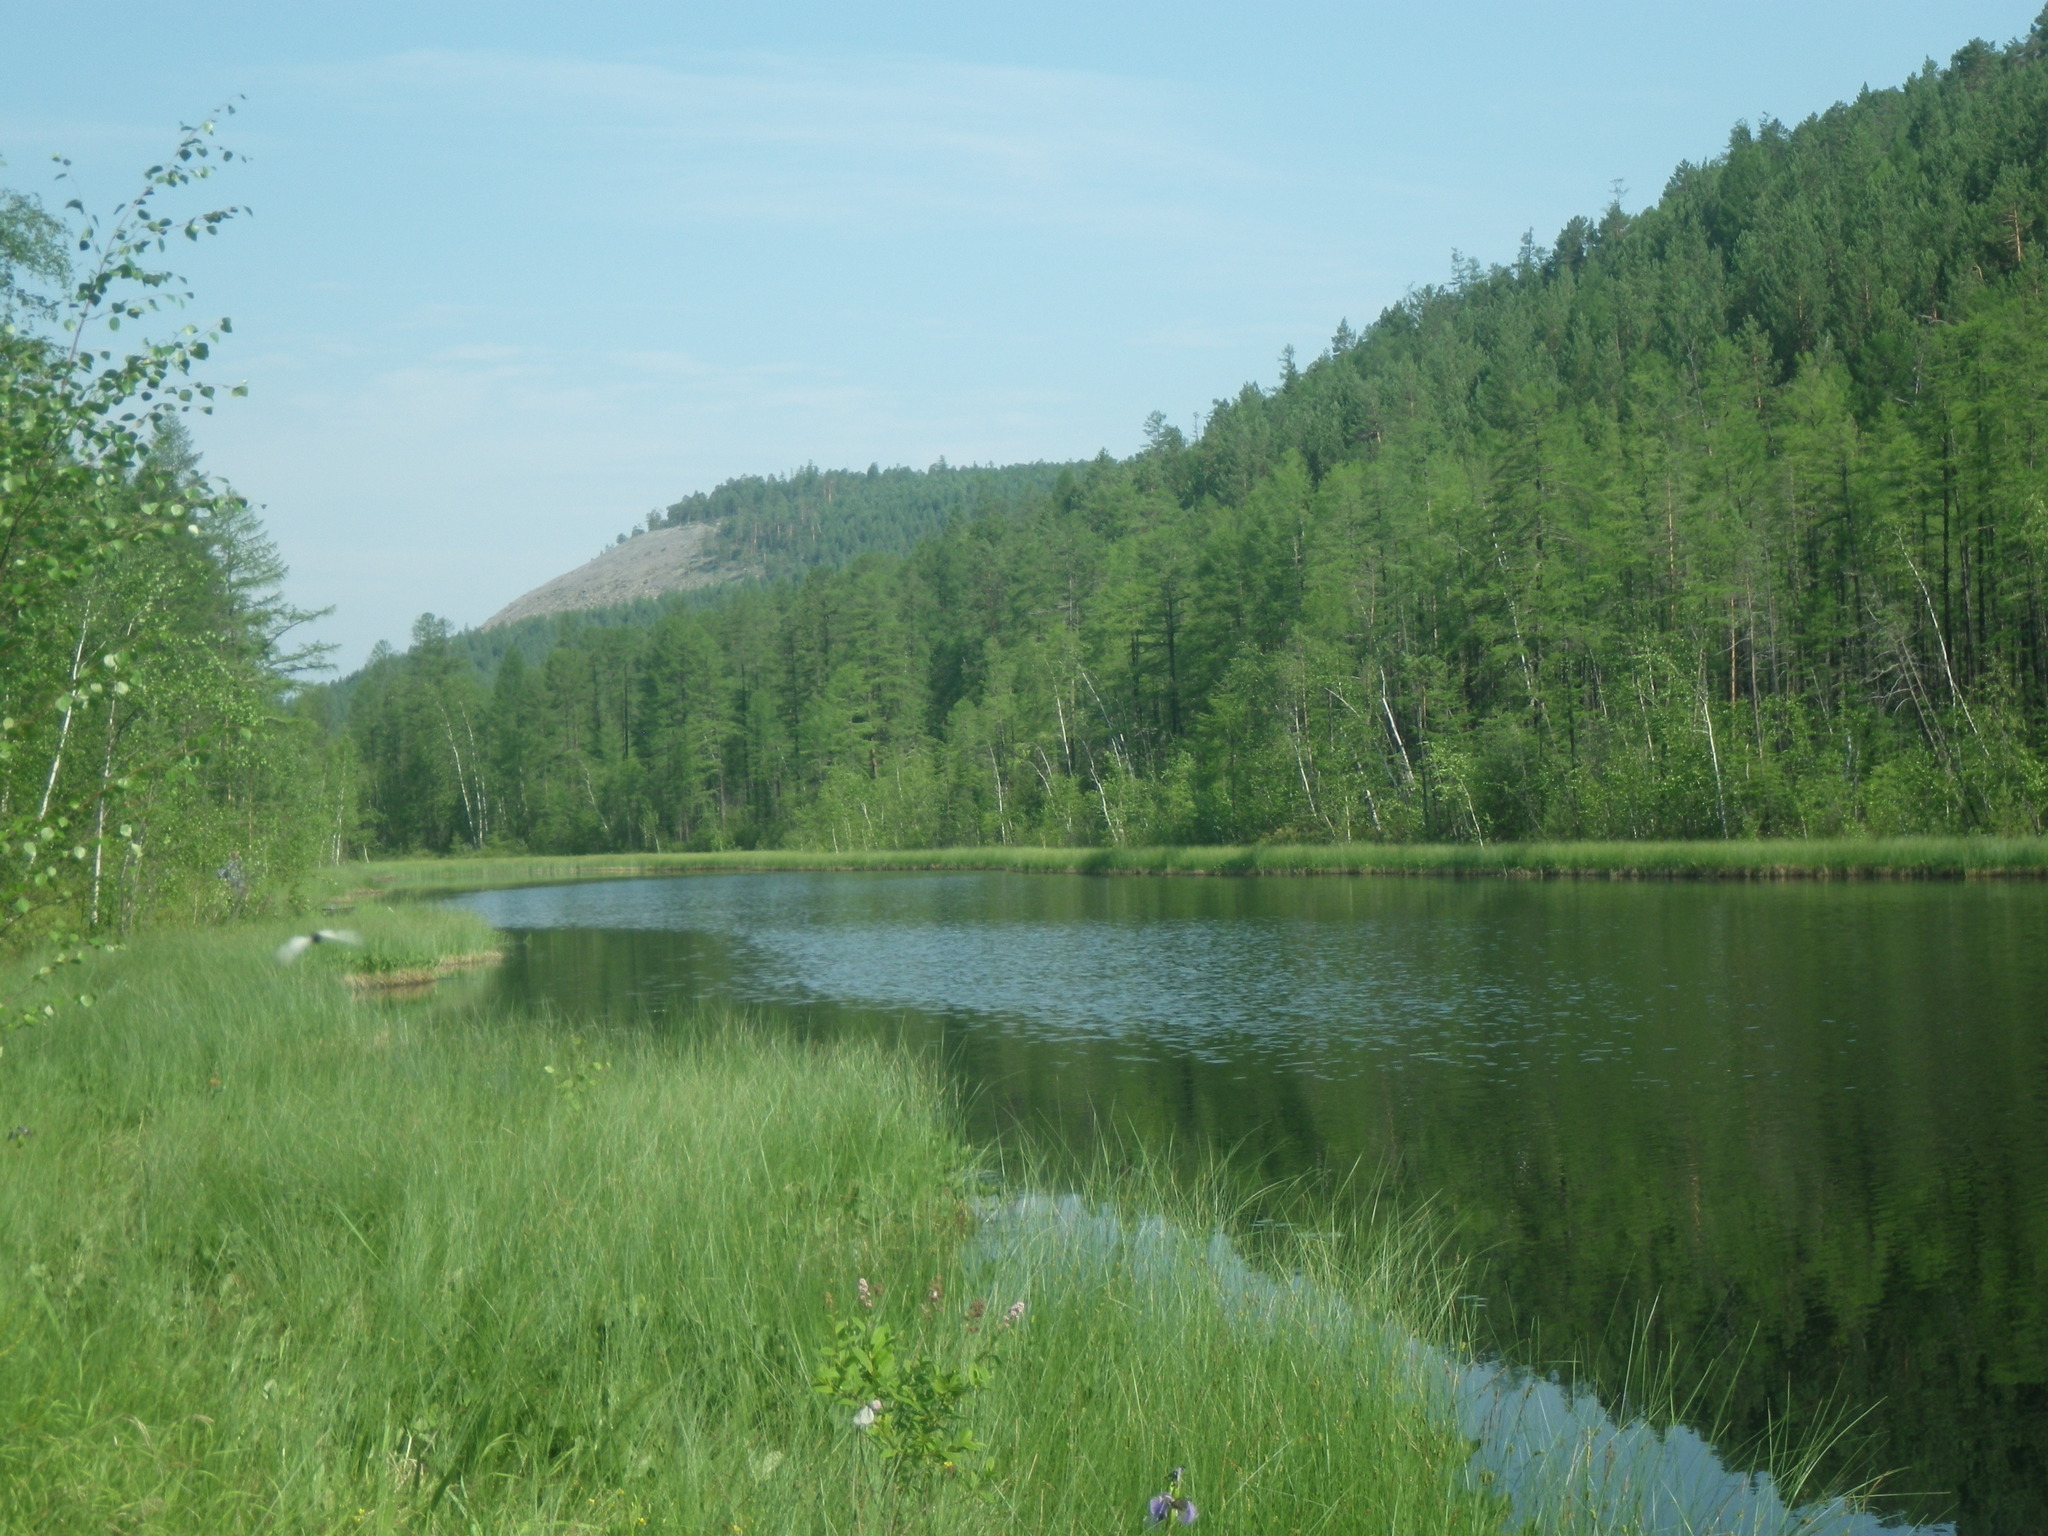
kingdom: Plantae
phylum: Tracheophyta
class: Pinopsida
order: Pinales
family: Pinaceae
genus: Larix
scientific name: Larix gmelinii
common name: Dahurian larch
